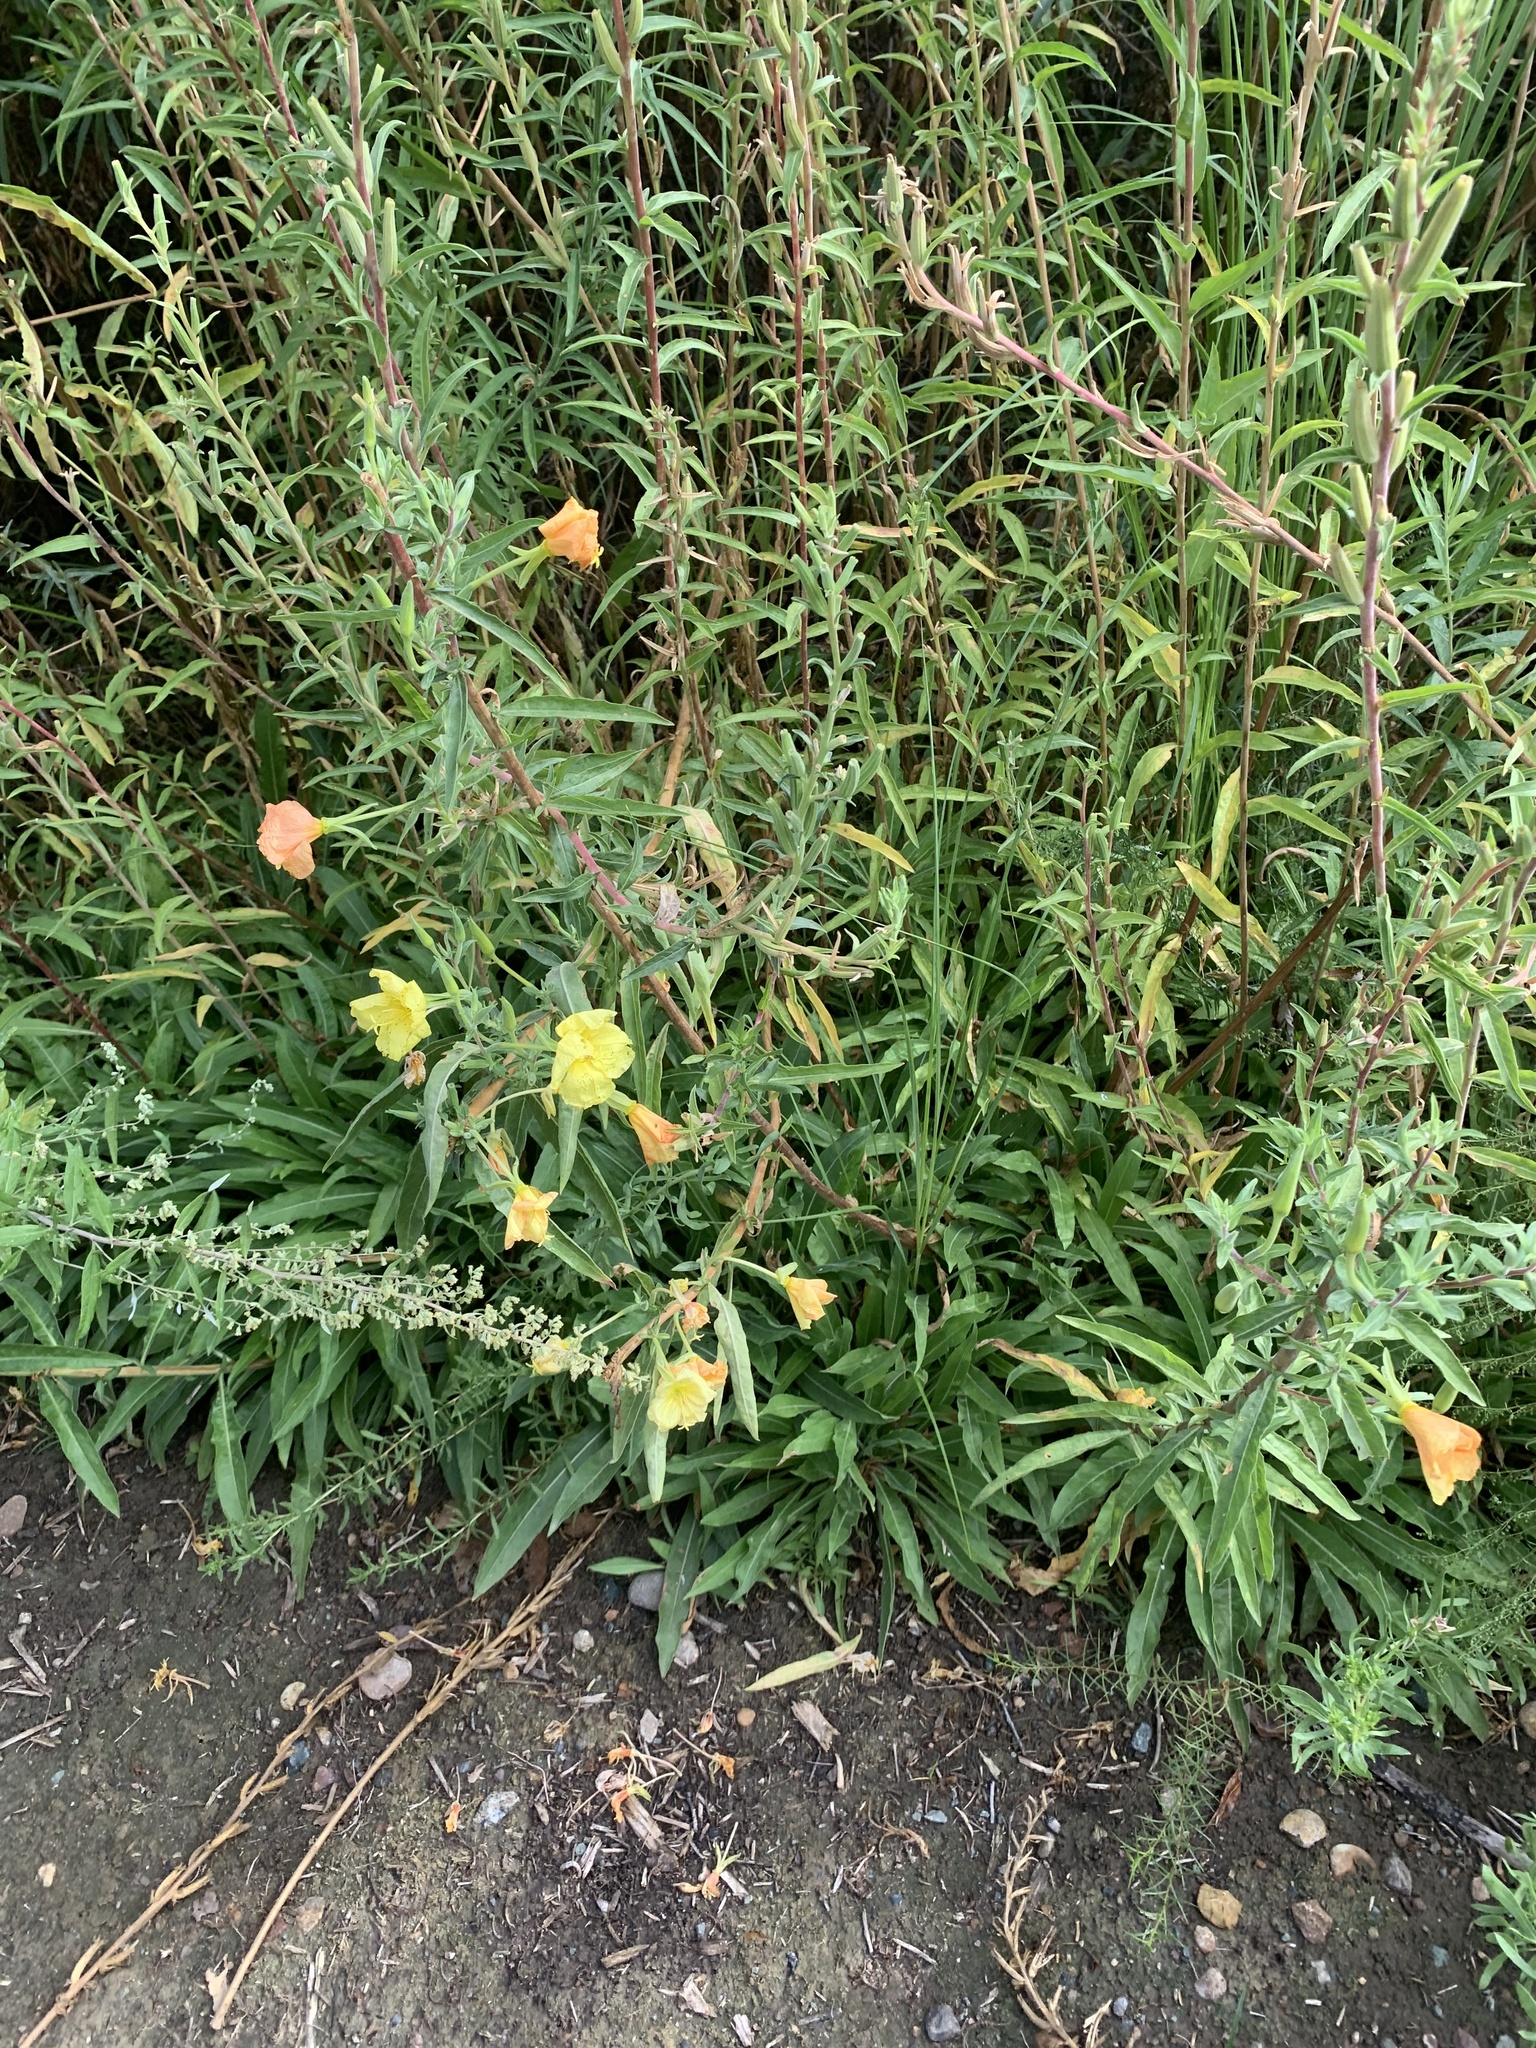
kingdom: Plantae
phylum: Tracheophyta
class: Magnoliopsida
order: Myrtales
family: Onagraceae
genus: Oenothera
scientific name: Oenothera elata
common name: Hooker's evening-primrose
